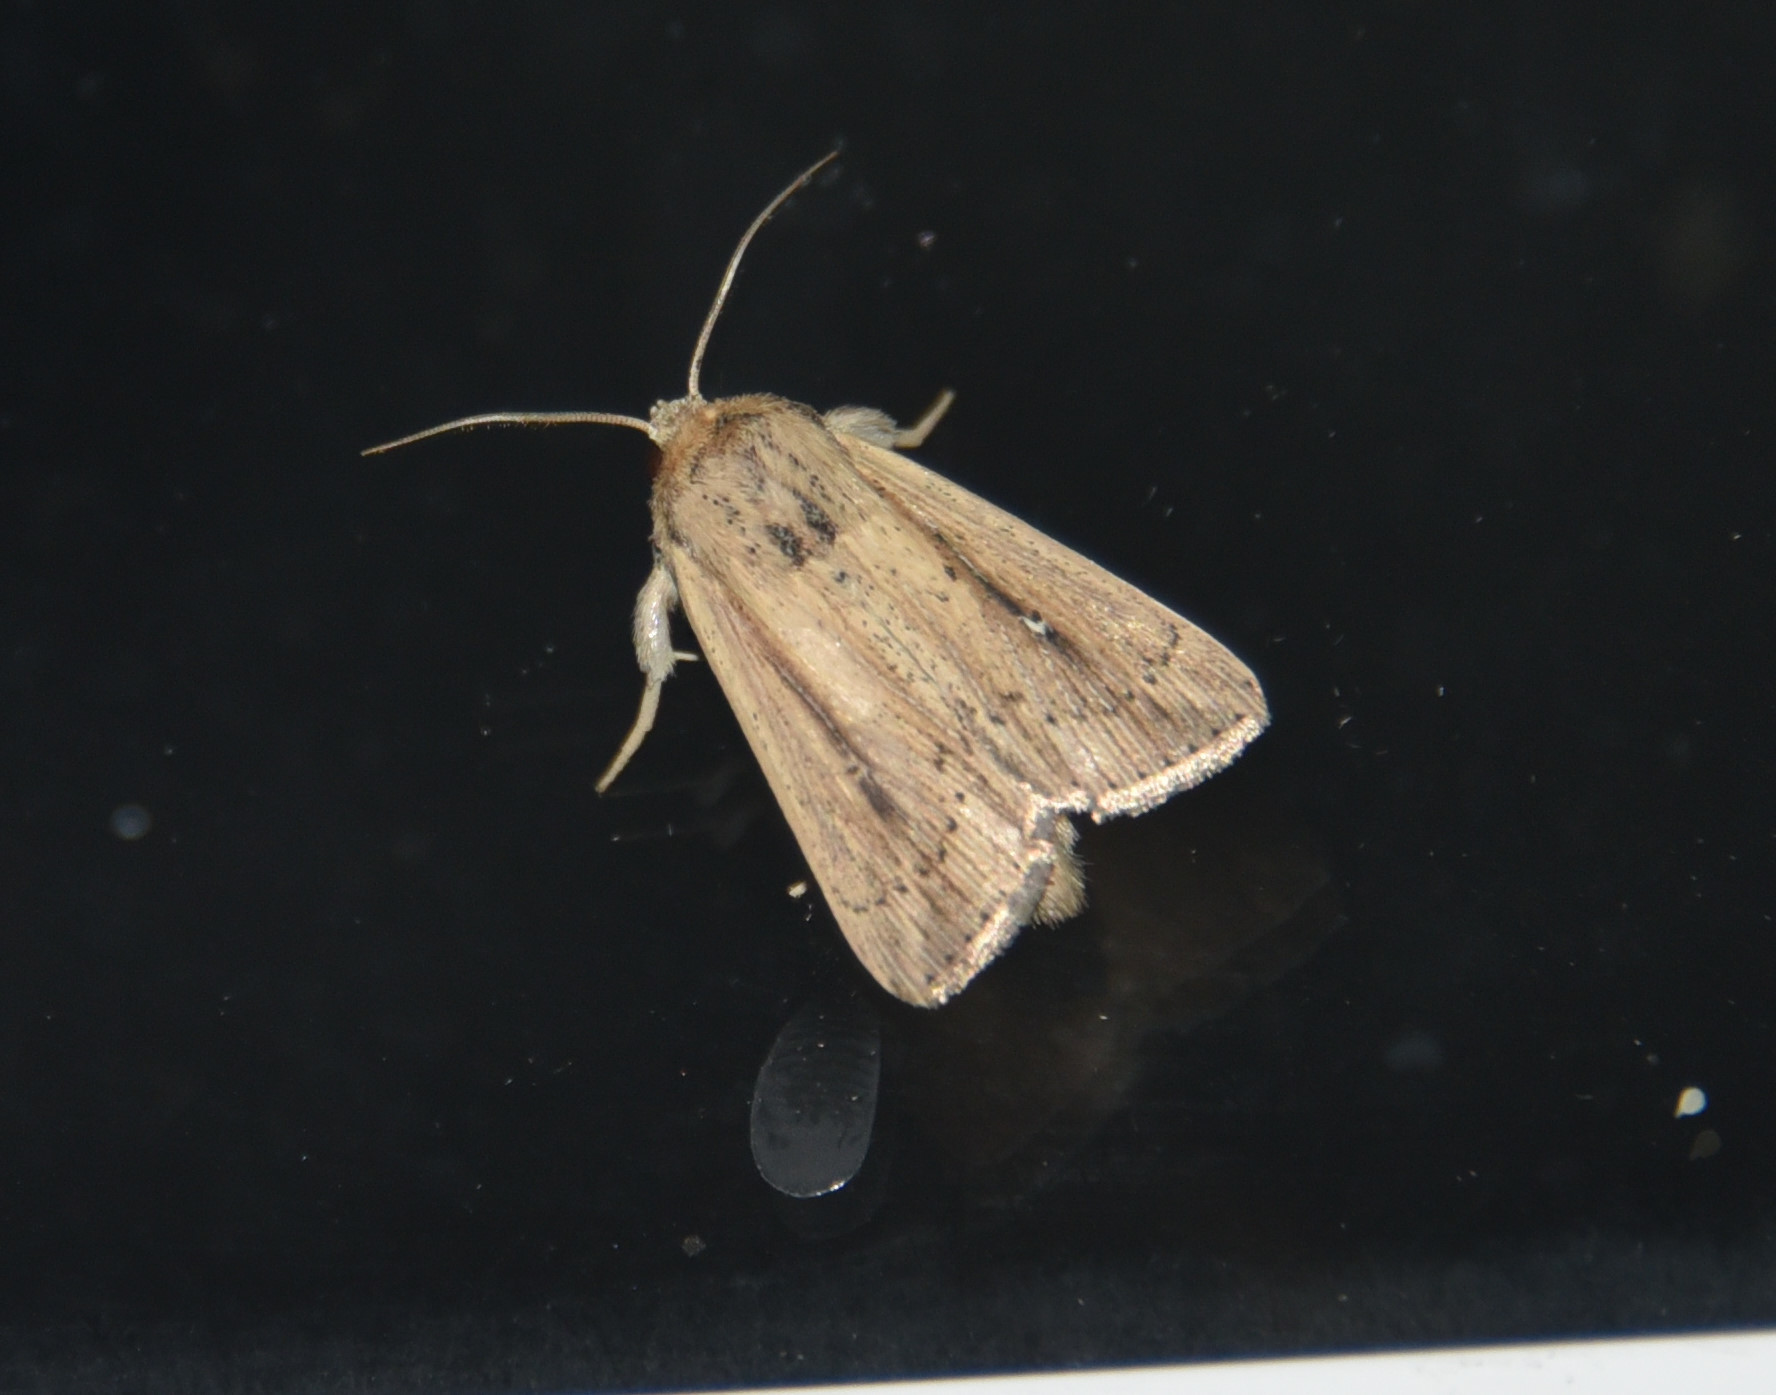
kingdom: Animalia
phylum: Arthropoda
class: Insecta
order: Lepidoptera
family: Noctuidae
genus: Leucania
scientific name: Leucania incognita
